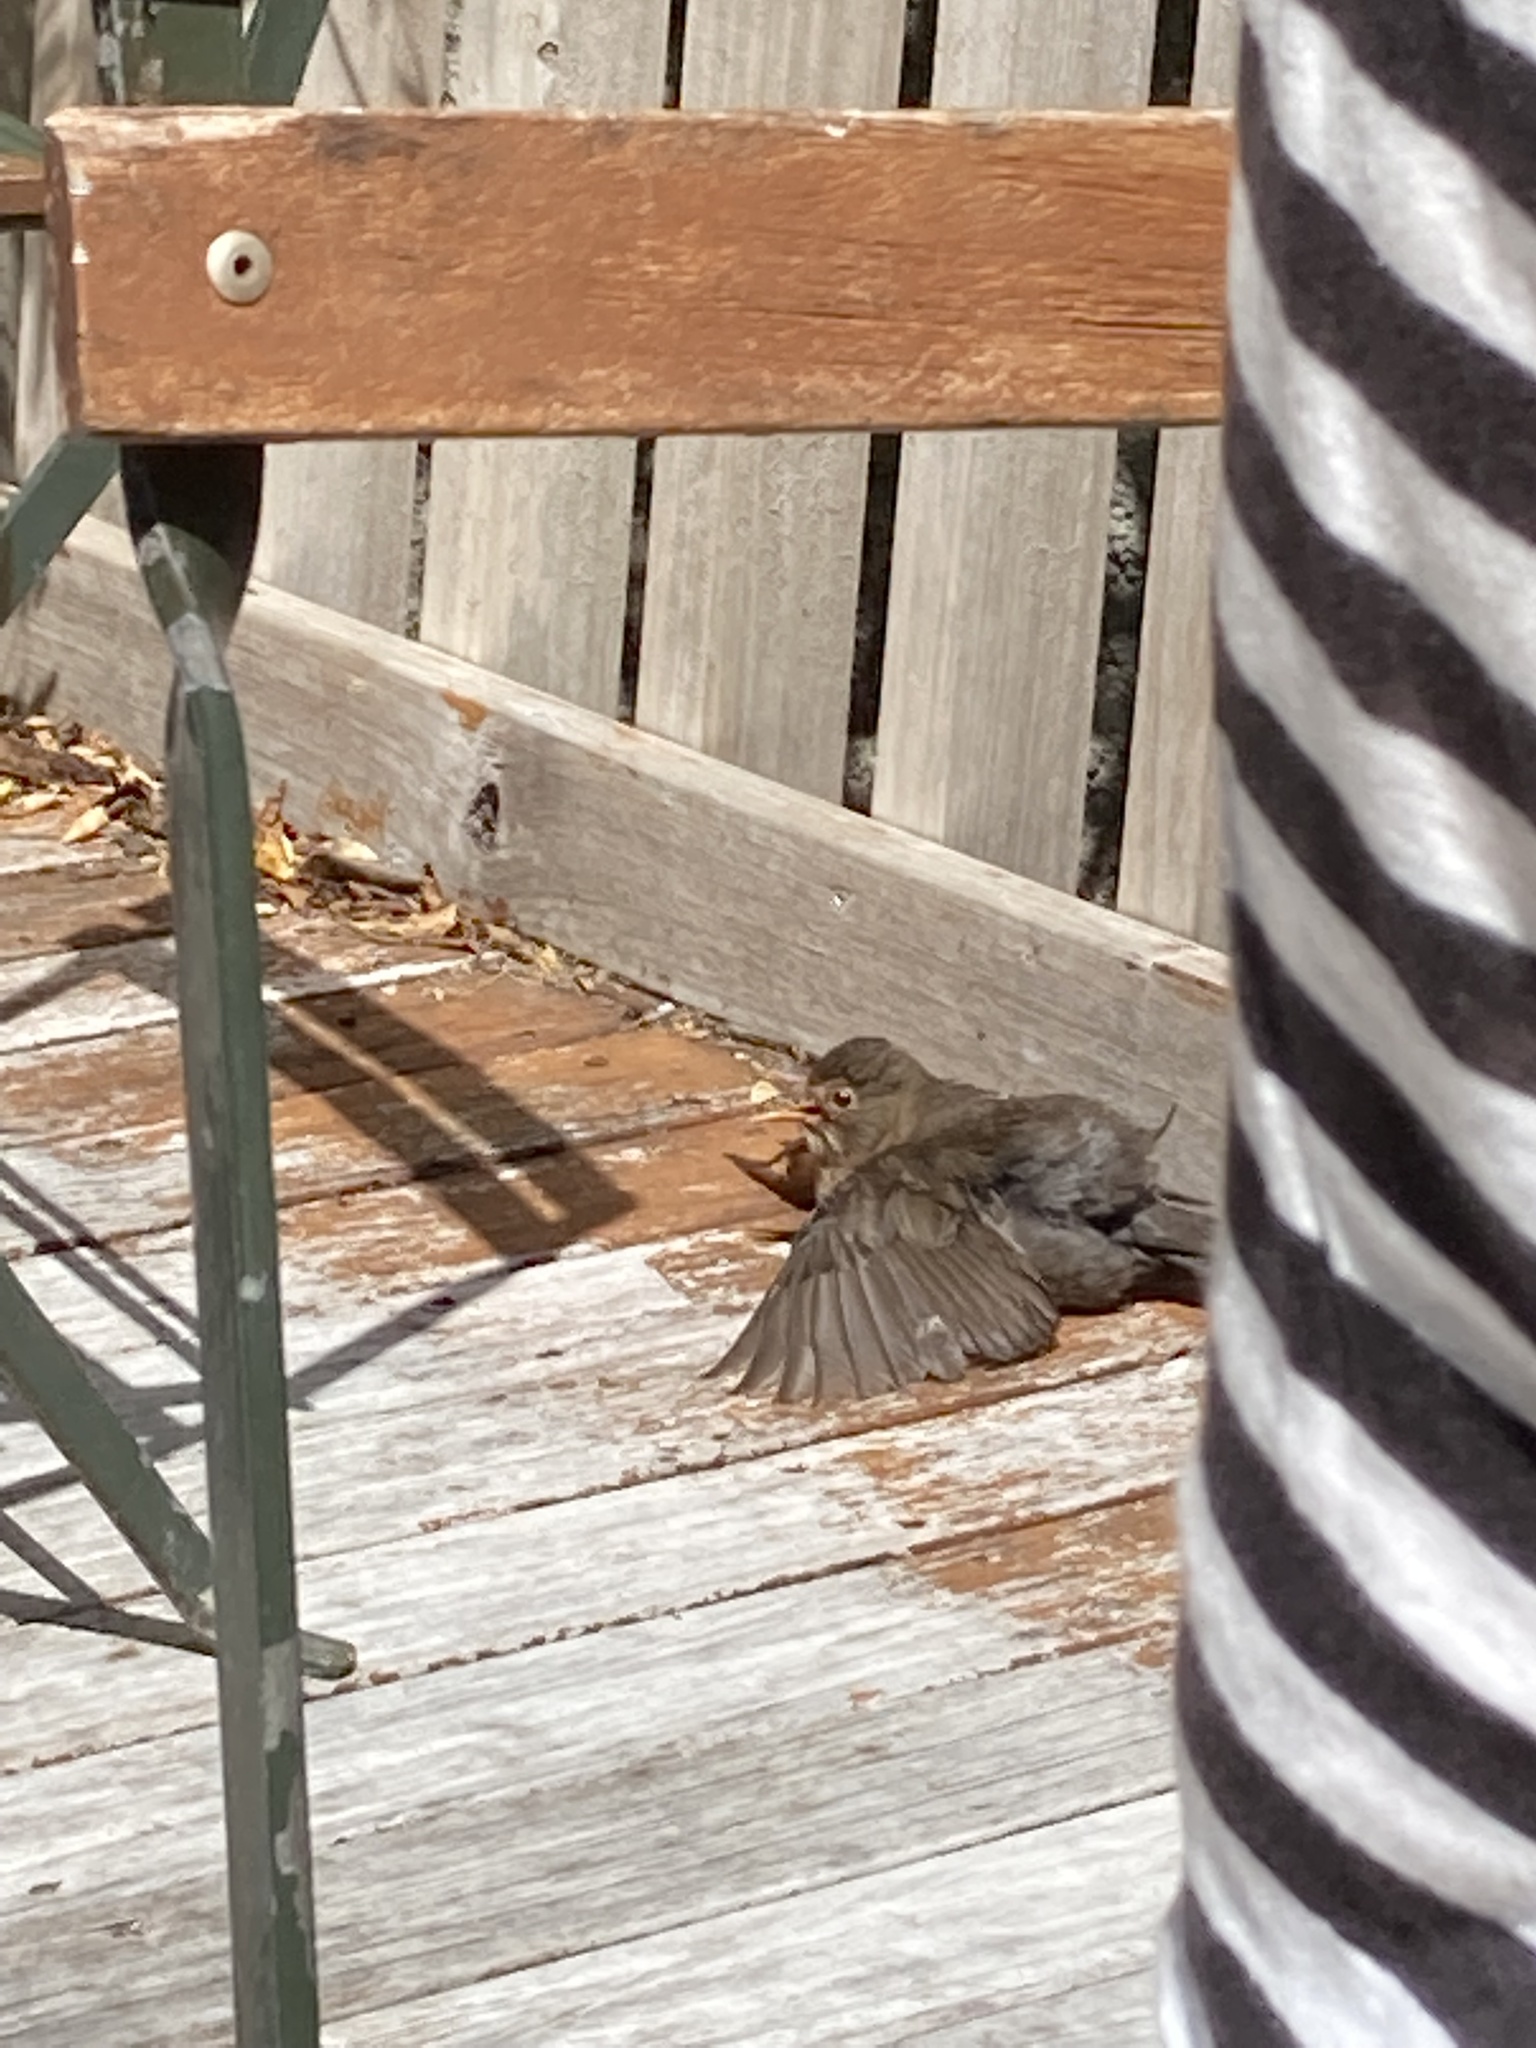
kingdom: Animalia
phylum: Chordata
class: Aves
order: Passeriformes
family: Turdidae
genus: Turdus
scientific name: Turdus merula
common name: Common blackbird
